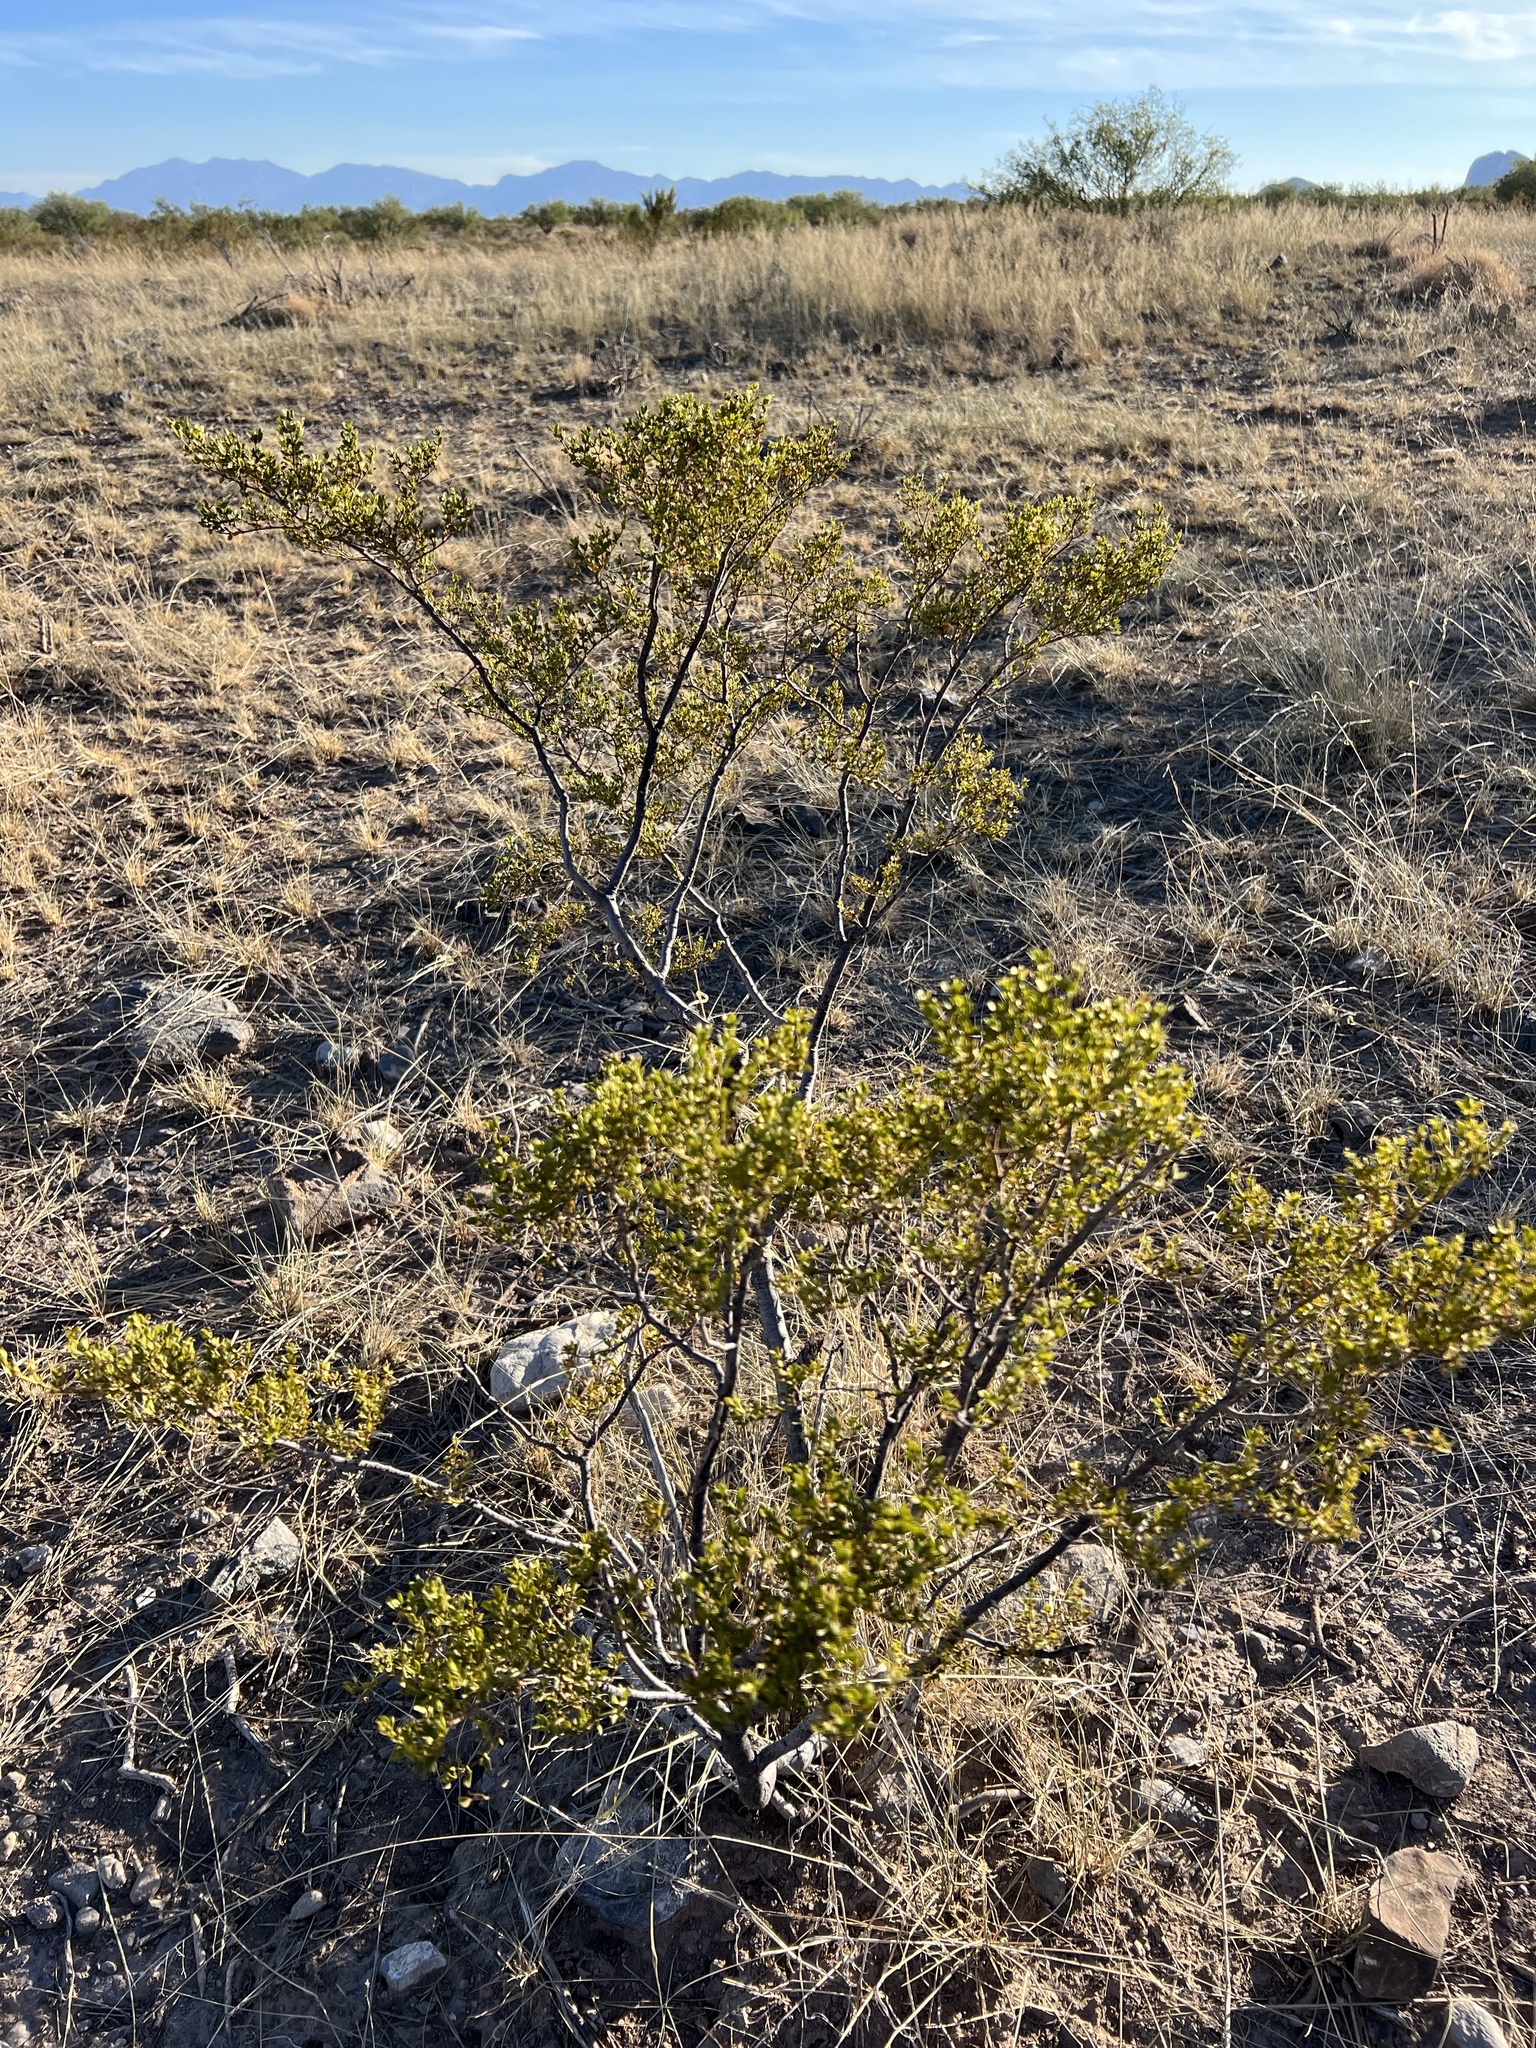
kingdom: Plantae
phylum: Tracheophyta
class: Magnoliopsida
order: Zygophyllales
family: Zygophyllaceae
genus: Larrea
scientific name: Larrea tridentata
